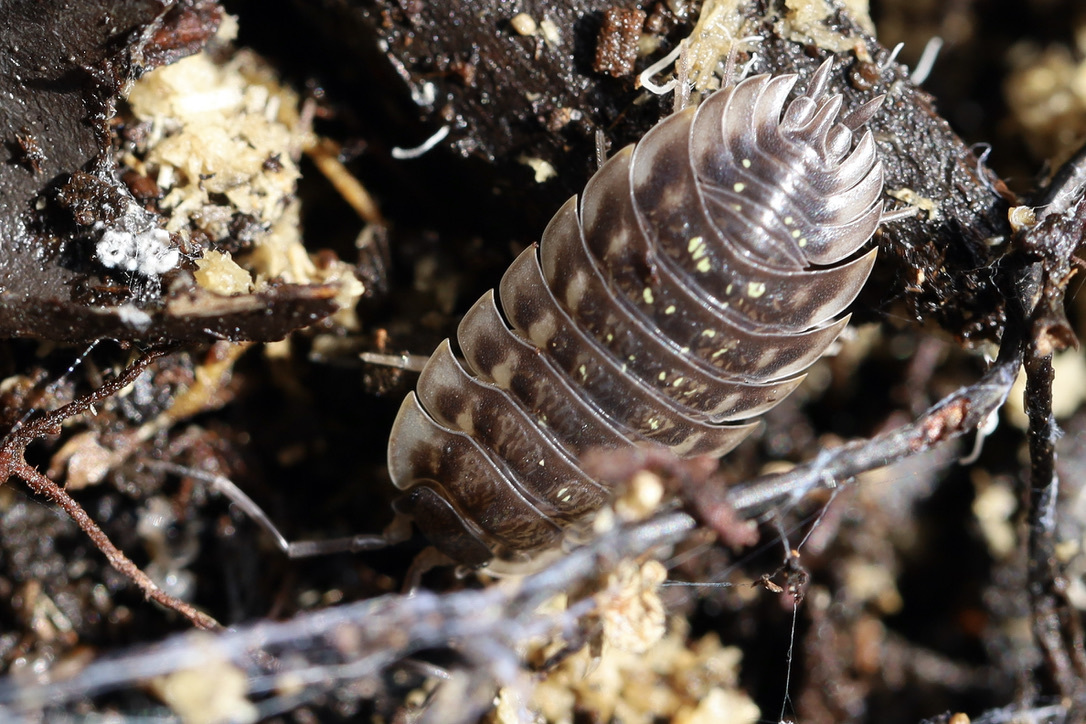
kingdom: Animalia
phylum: Arthropoda
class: Malacostraca
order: Isopoda
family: Oniscidae
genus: Oniscus
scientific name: Oniscus asellus
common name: Common shiny woodlouse
